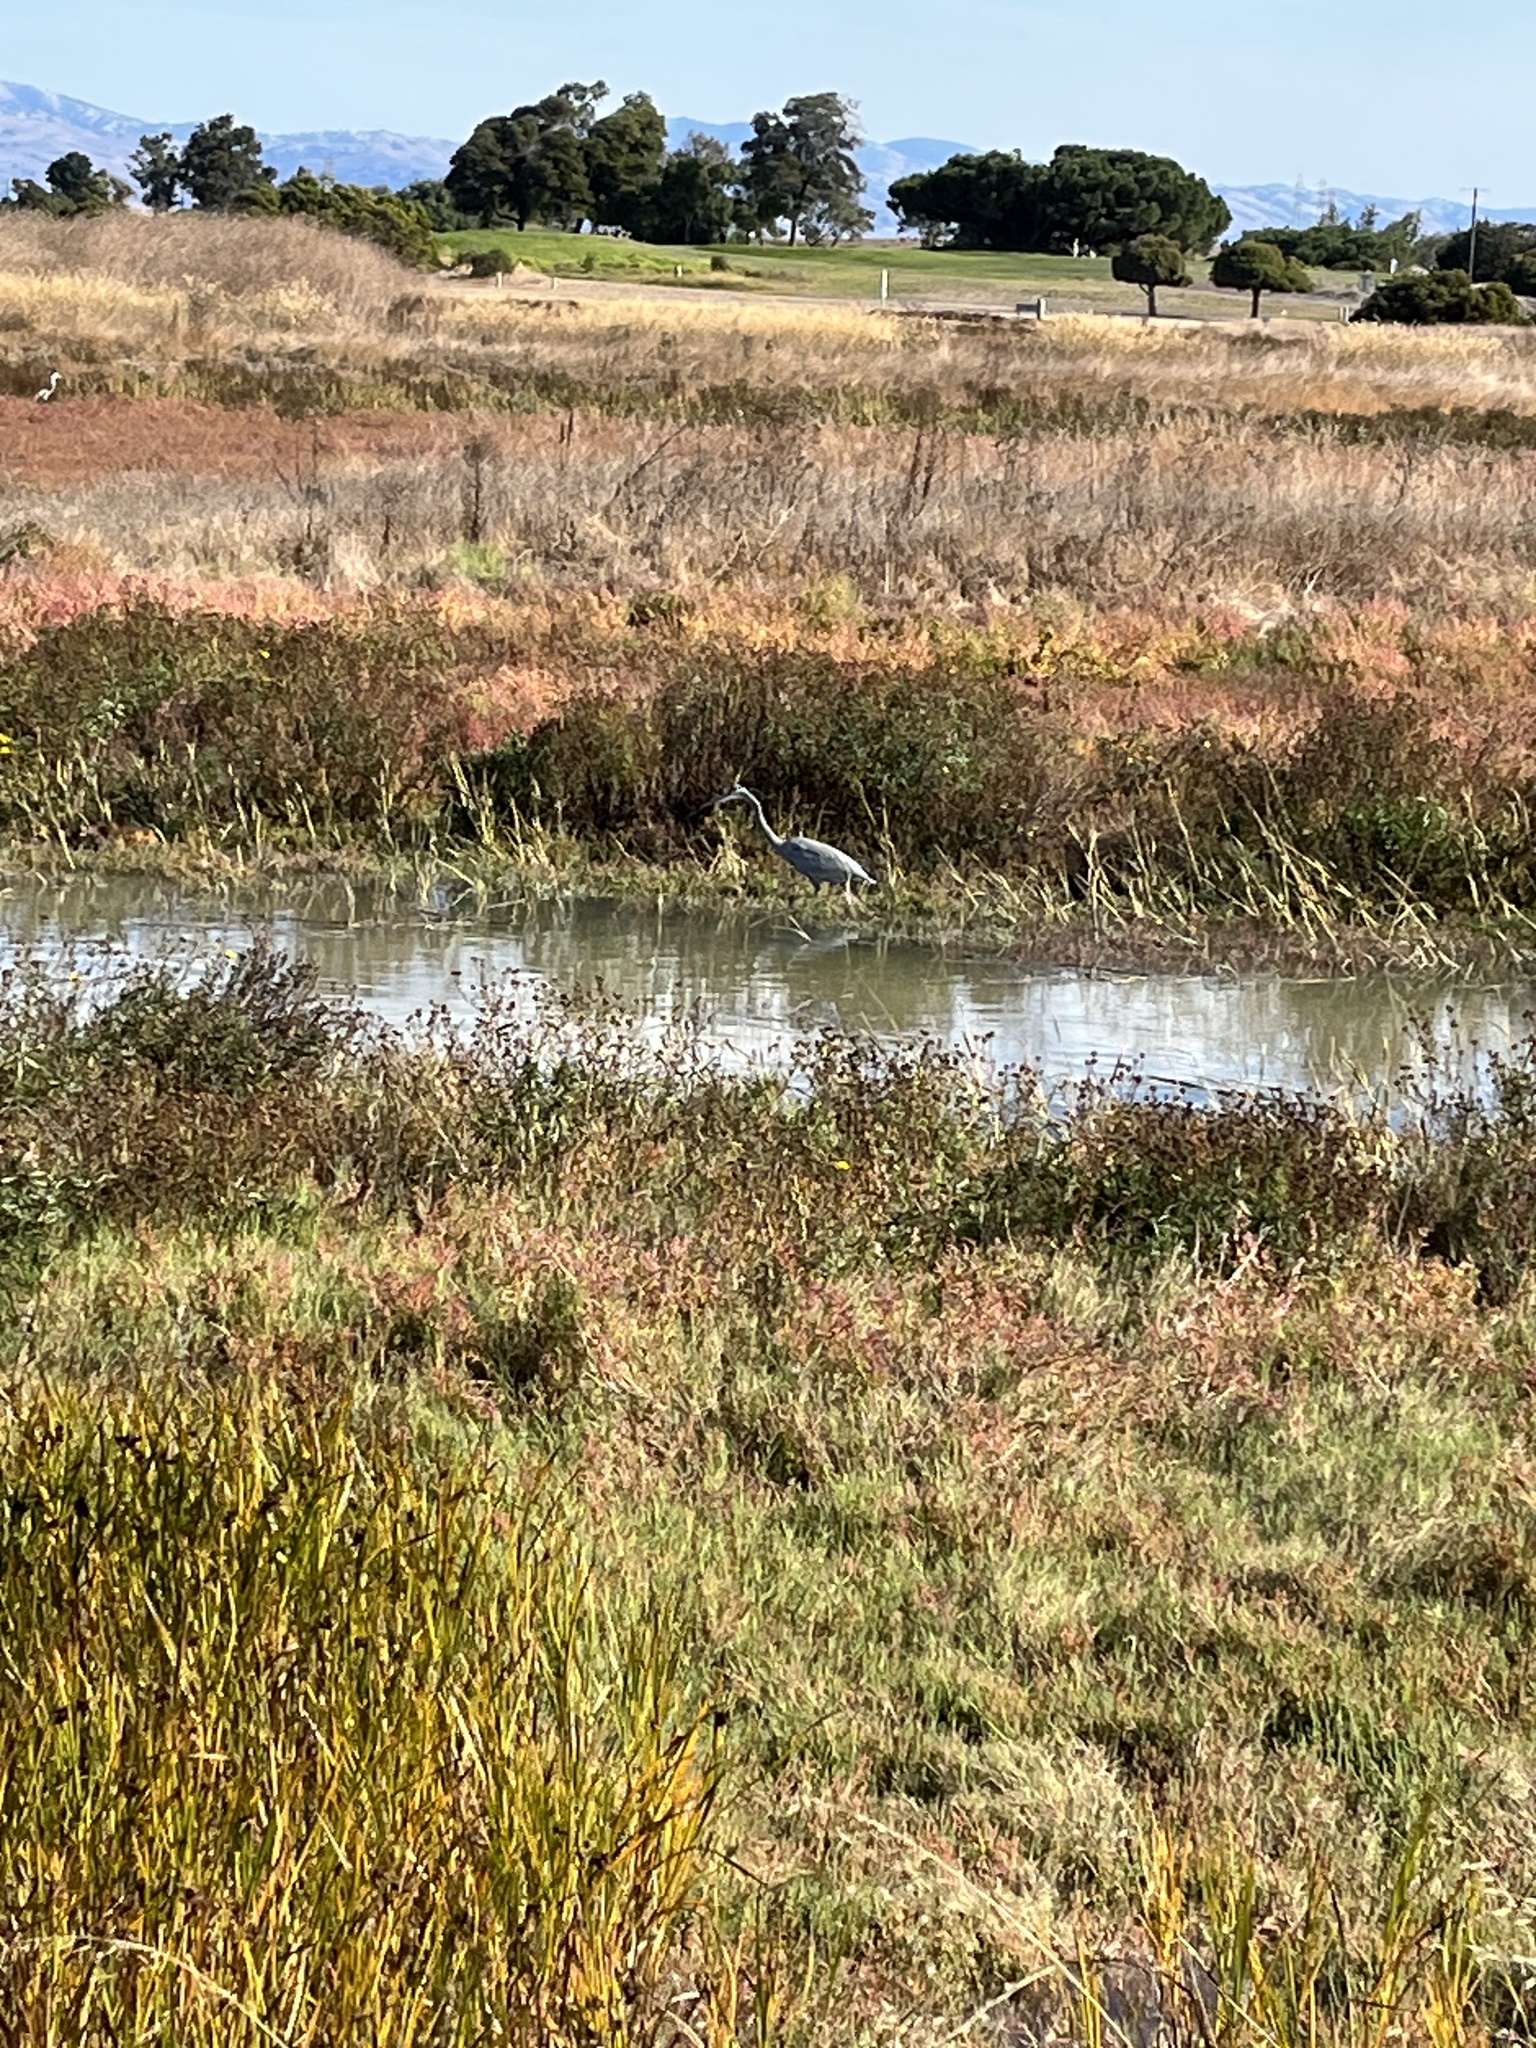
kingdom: Animalia
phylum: Chordata
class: Aves
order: Pelecaniformes
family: Ardeidae
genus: Ardea
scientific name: Ardea herodias
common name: Great blue heron
